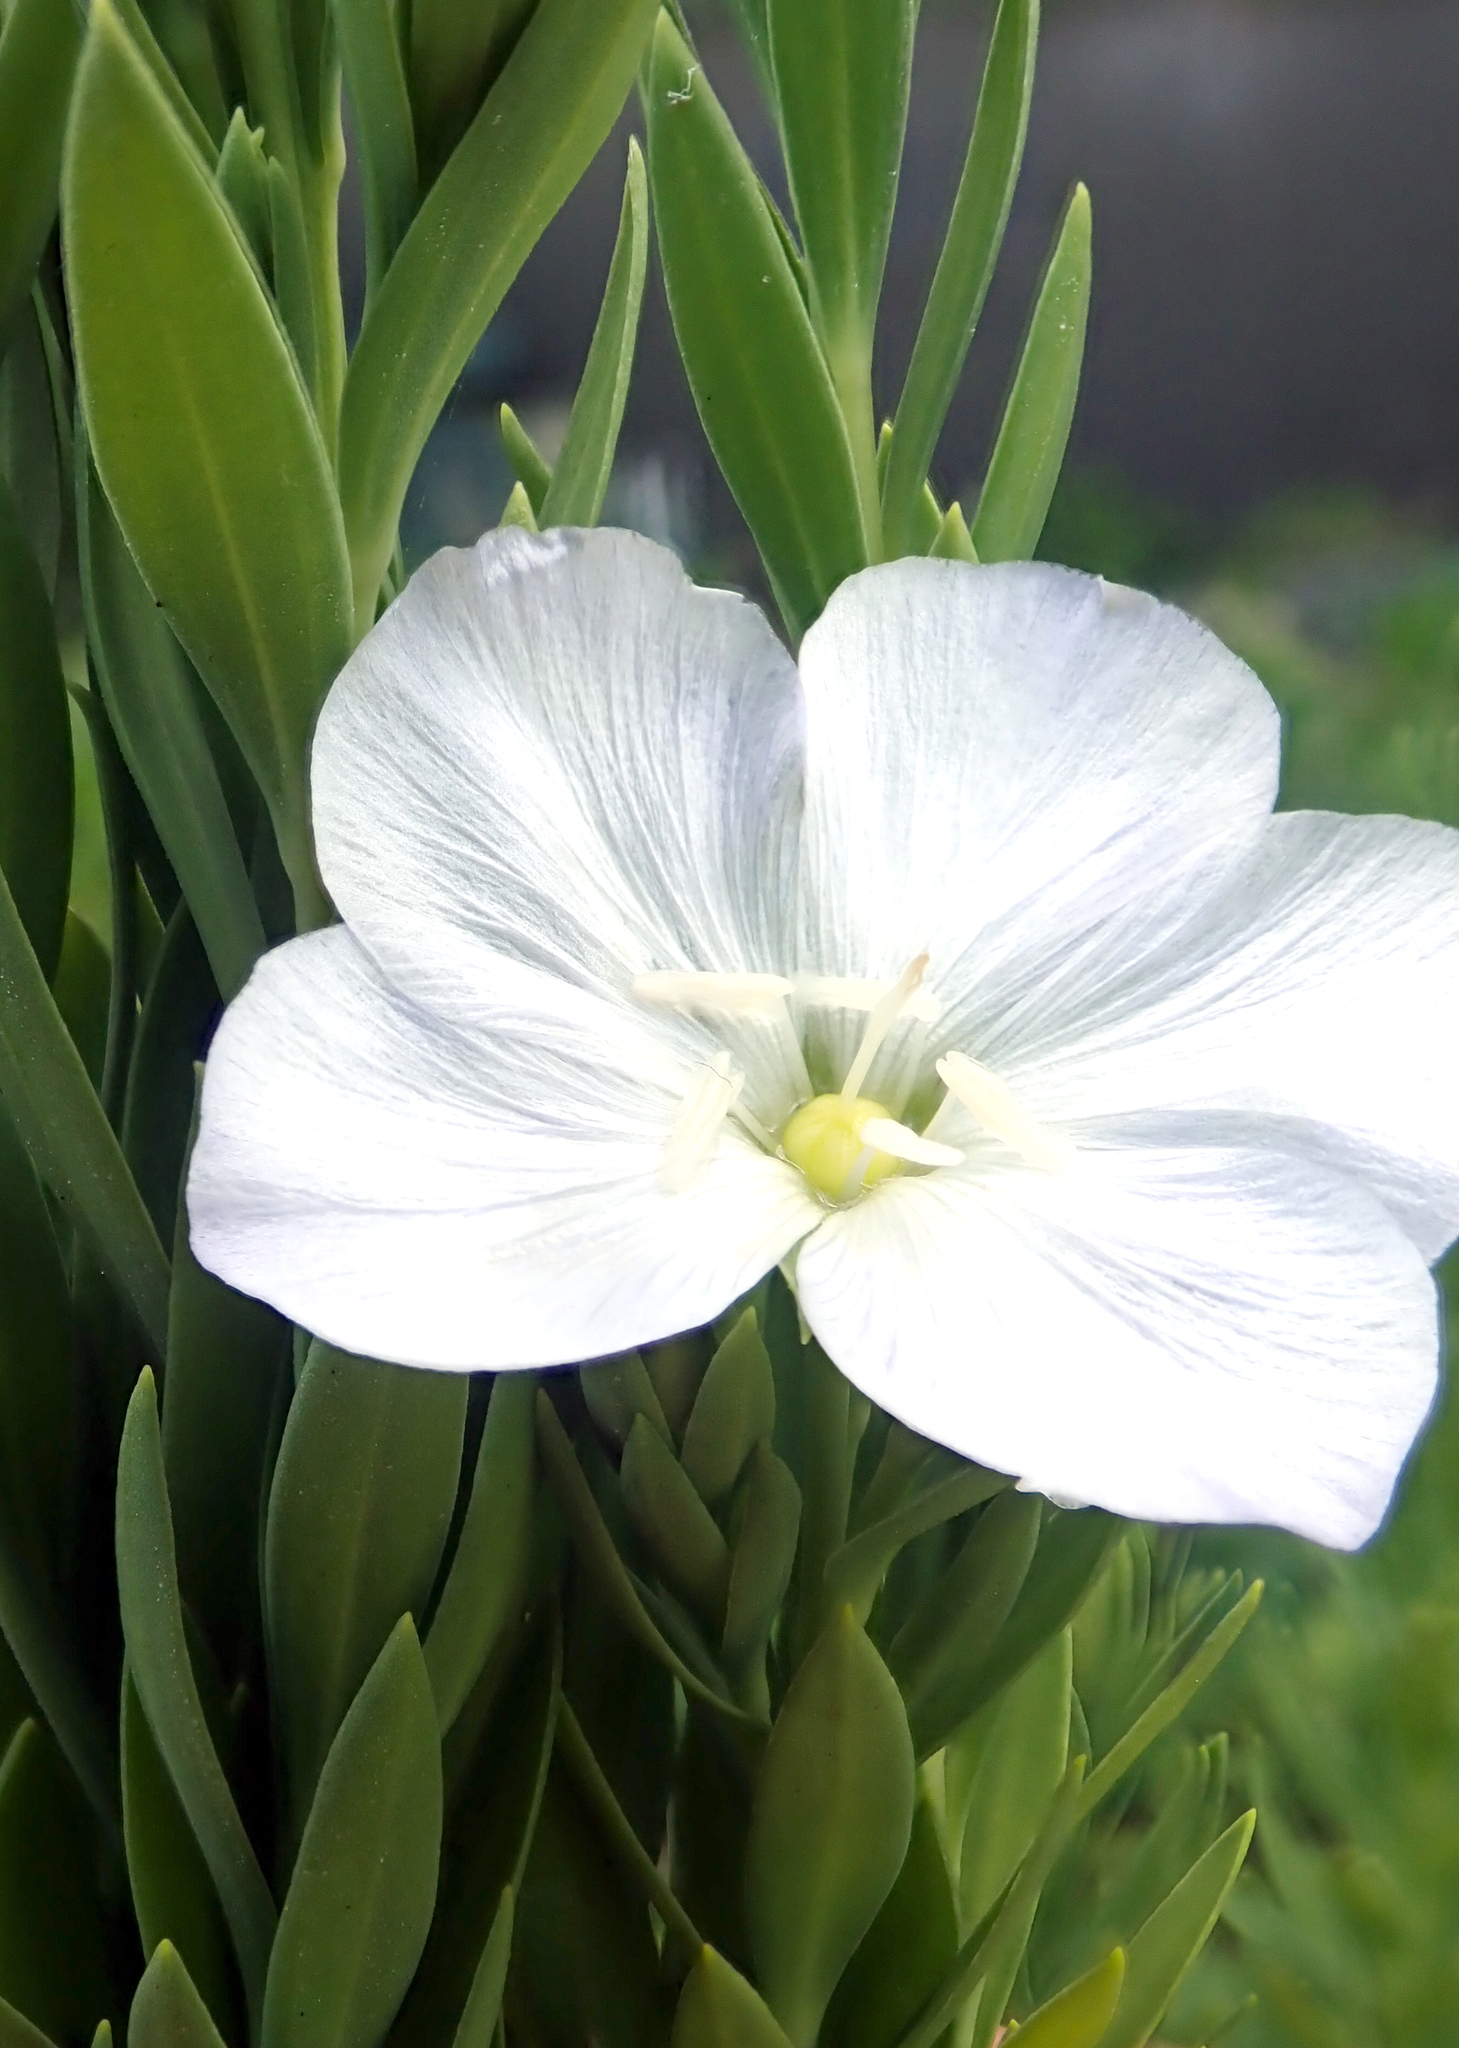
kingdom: Plantae
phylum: Tracheophyta
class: Magnoliopsida
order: Malpighiales
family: Linaceae
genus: Linum
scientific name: Linum monogynum
